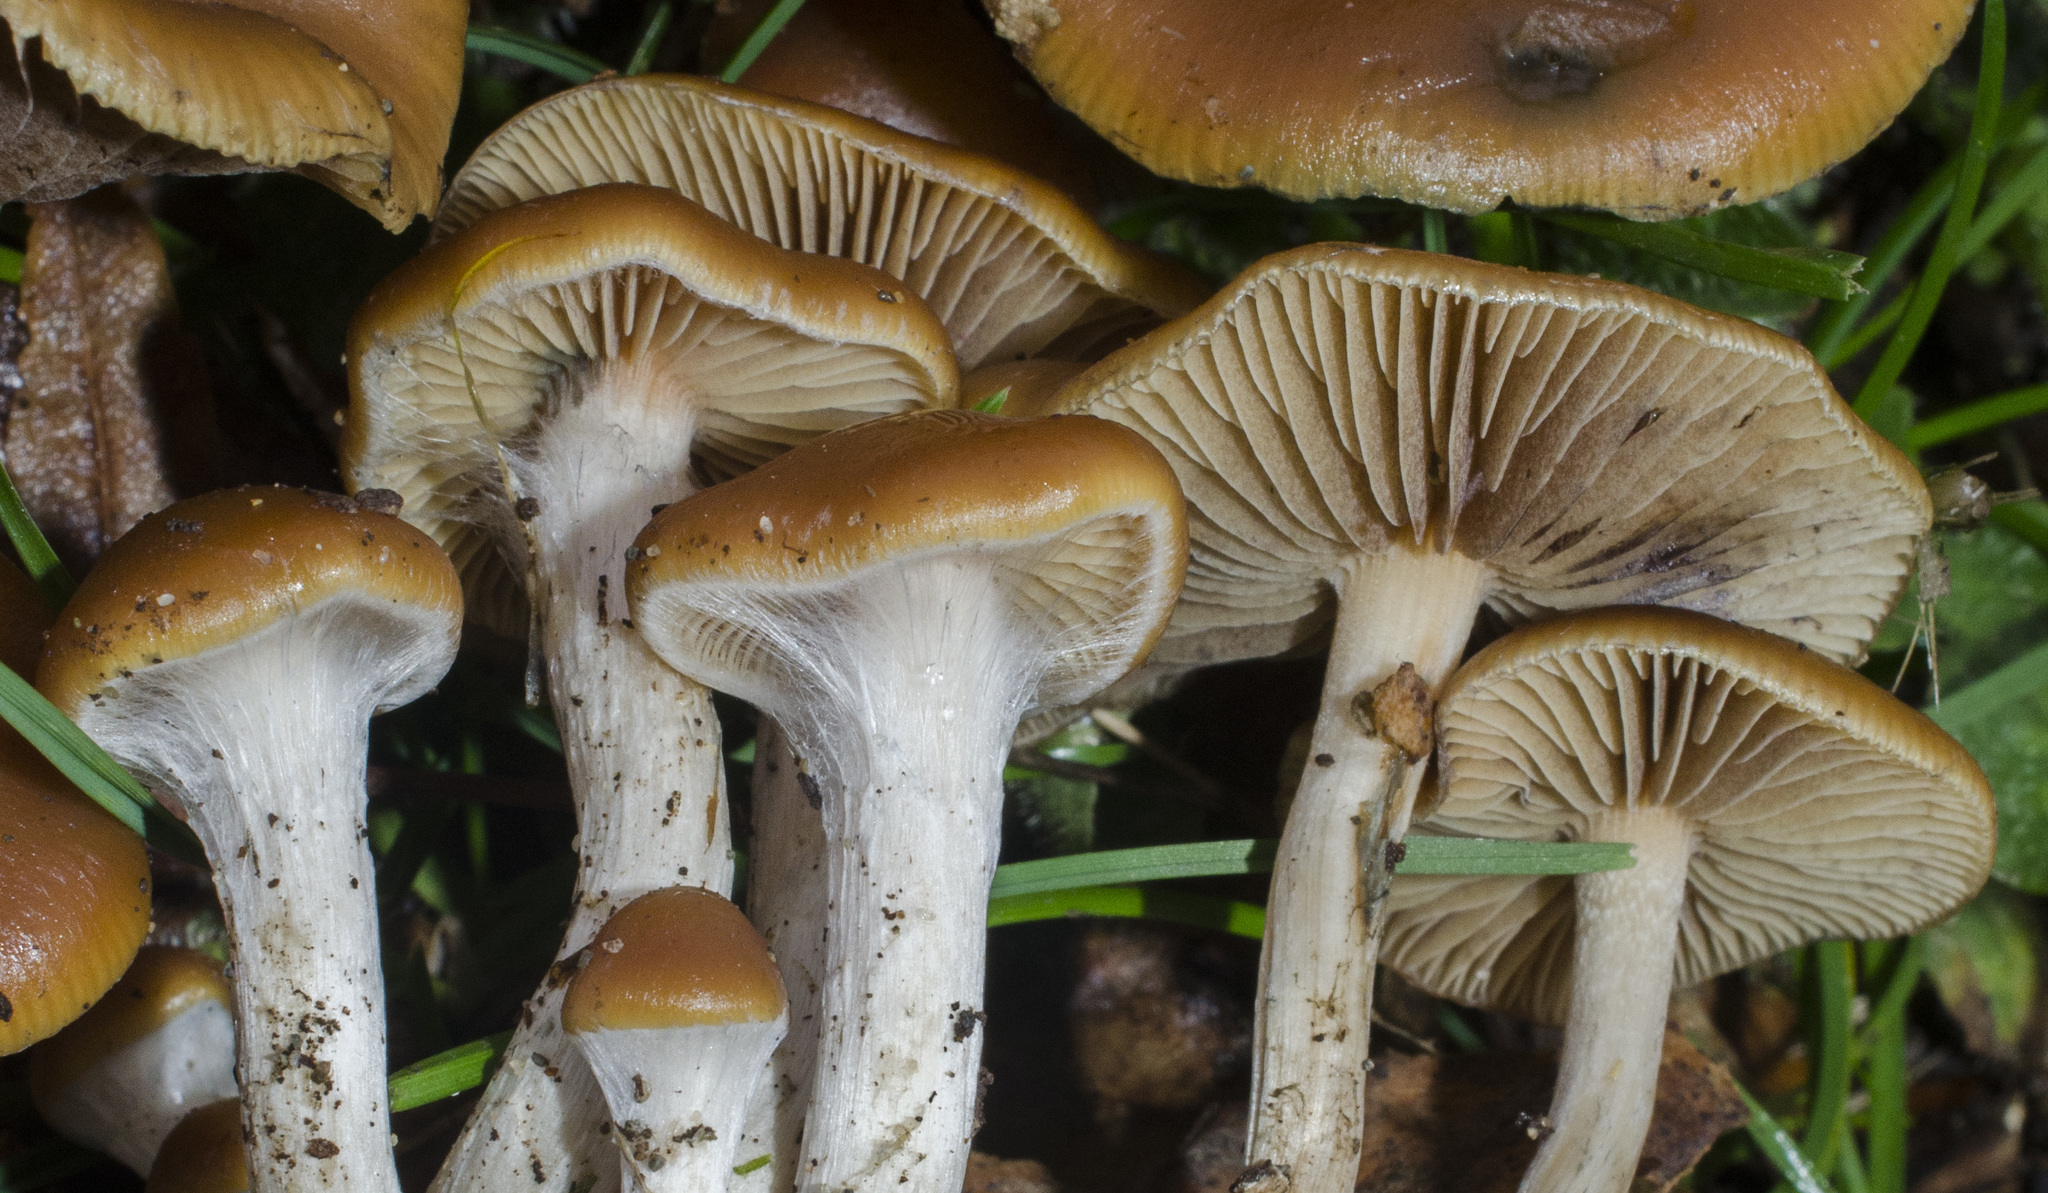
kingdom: Fungi
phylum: Basidiomycota
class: Agaricomycetes
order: Agaricales
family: Hymenogastraceae
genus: Psilocybe
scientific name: Psilocybe cyanescens
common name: Blueleg brownie
